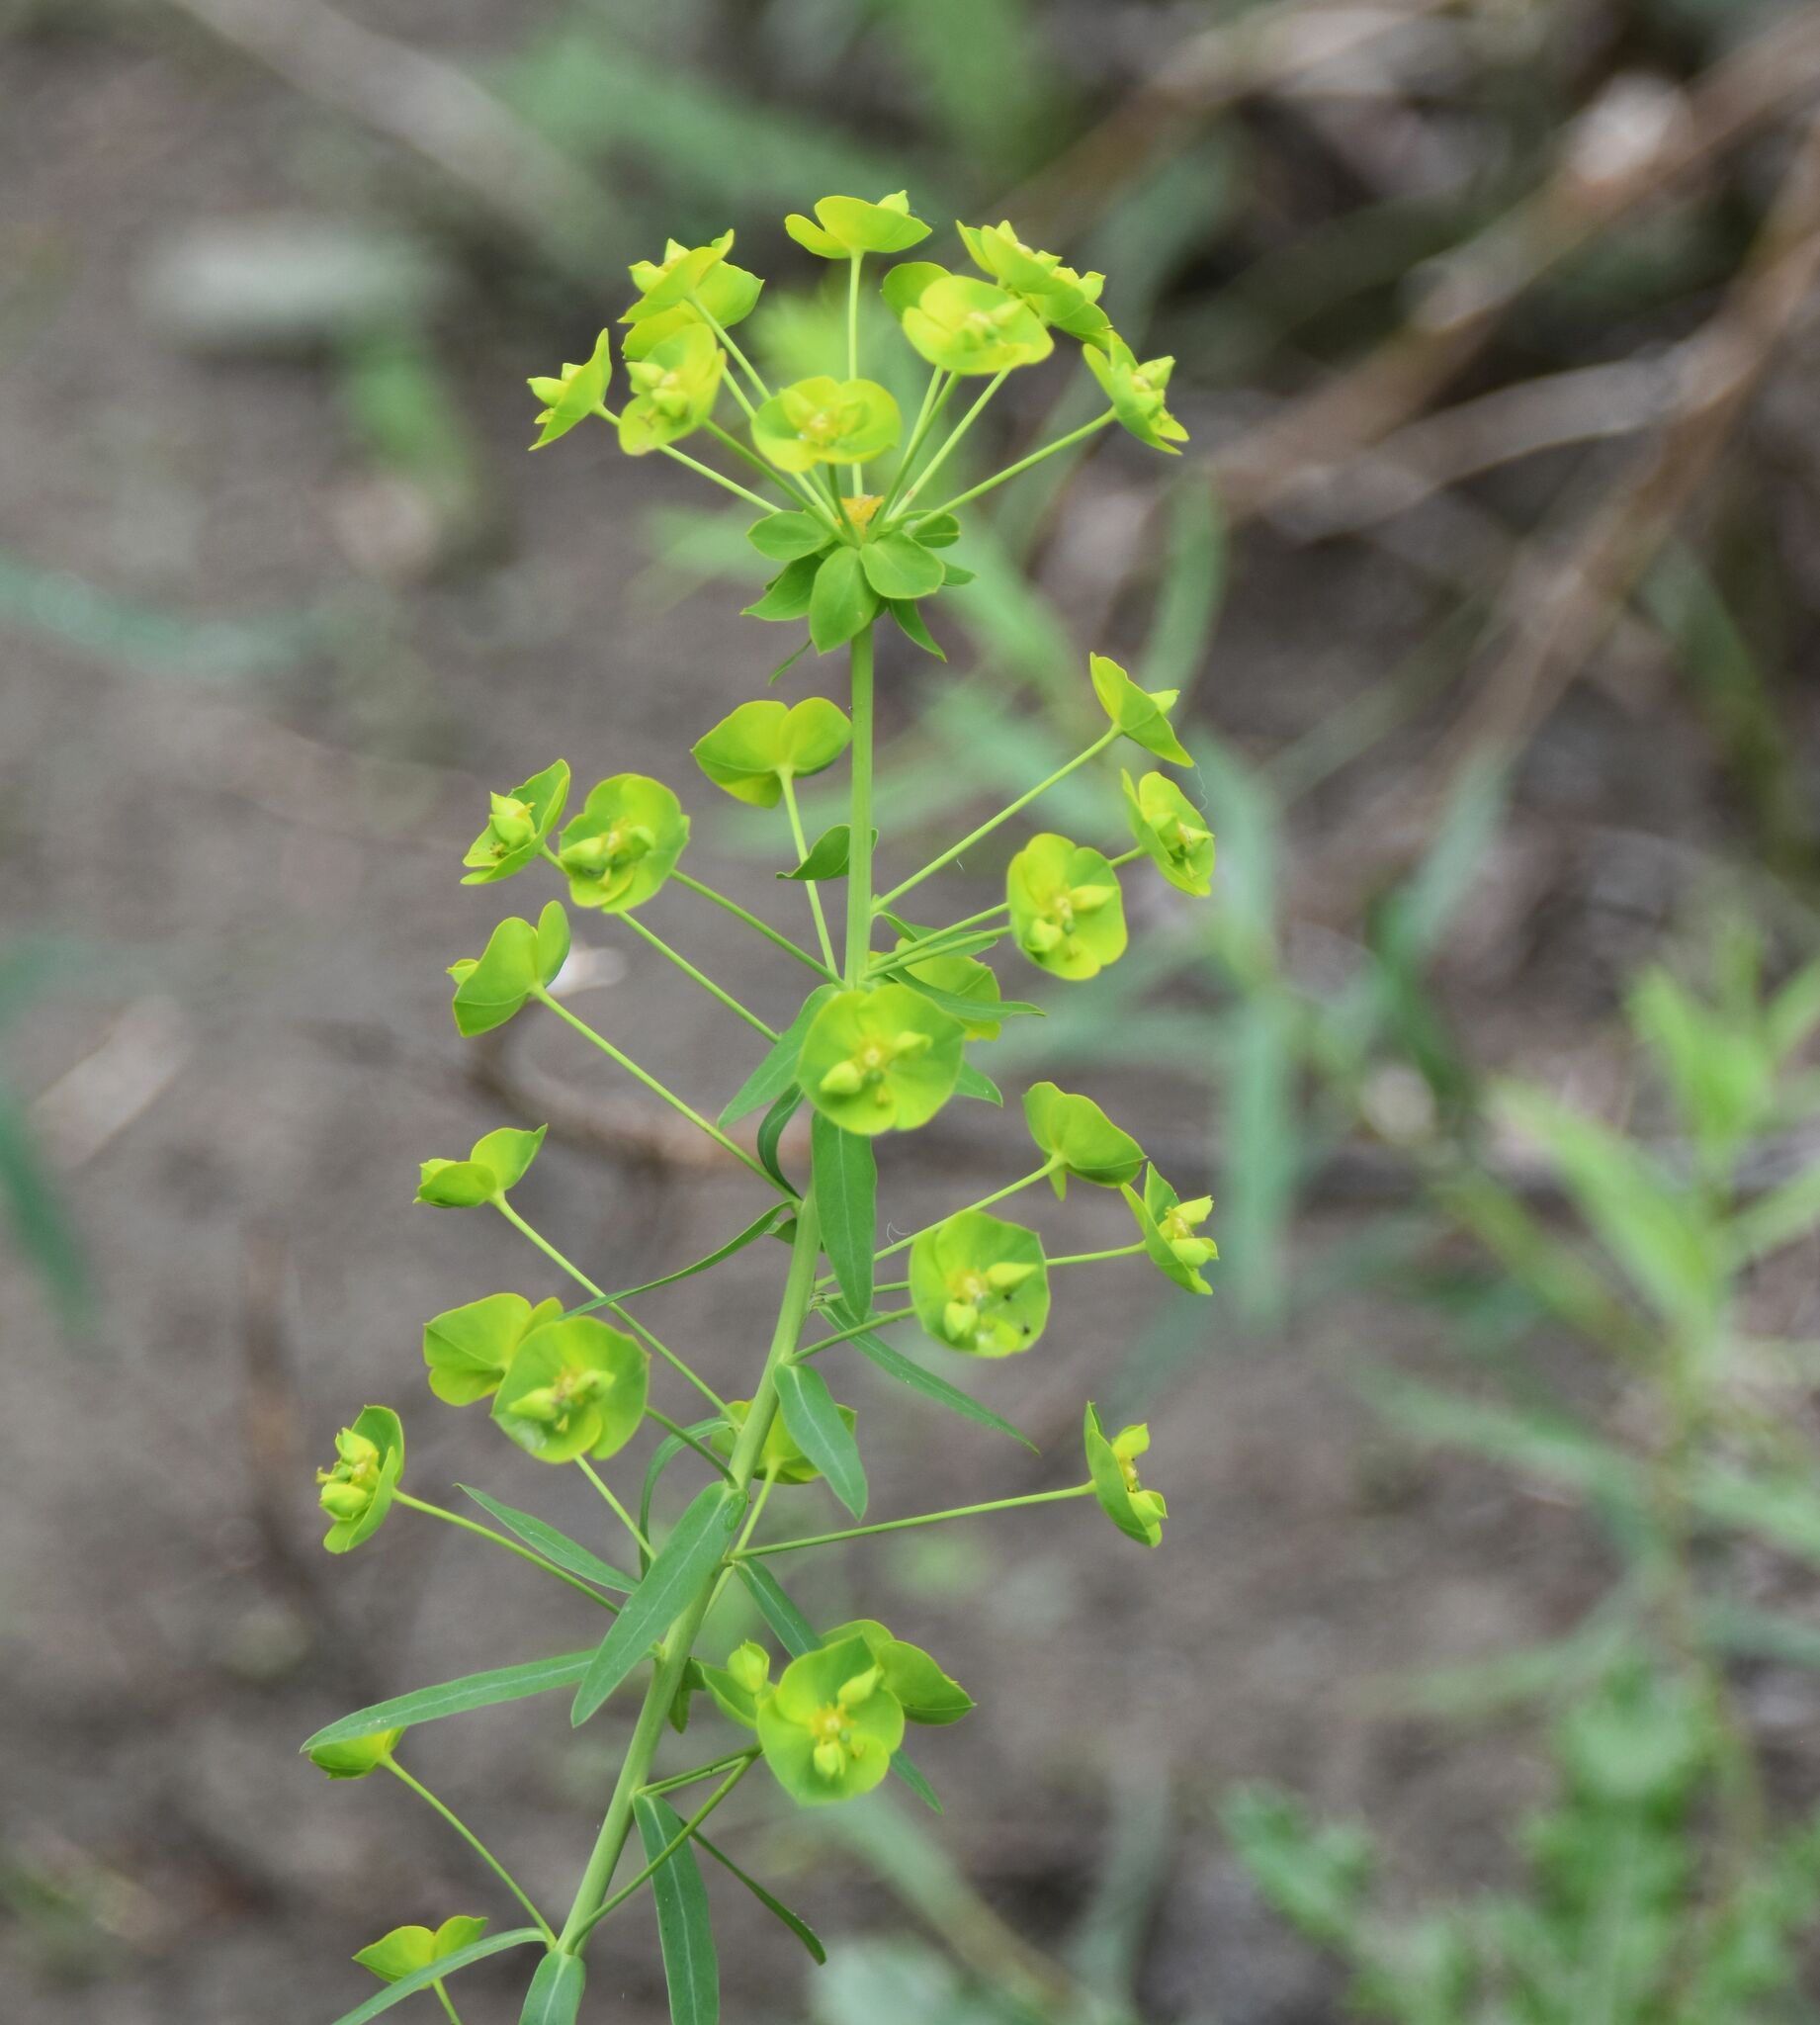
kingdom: Plantae
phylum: Tracheophyta
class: Magnoliopsida
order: Malpighiales
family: Euphorbiaceae
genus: Euphorbia
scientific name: Euphorbia virgata
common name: Leafy spurge
